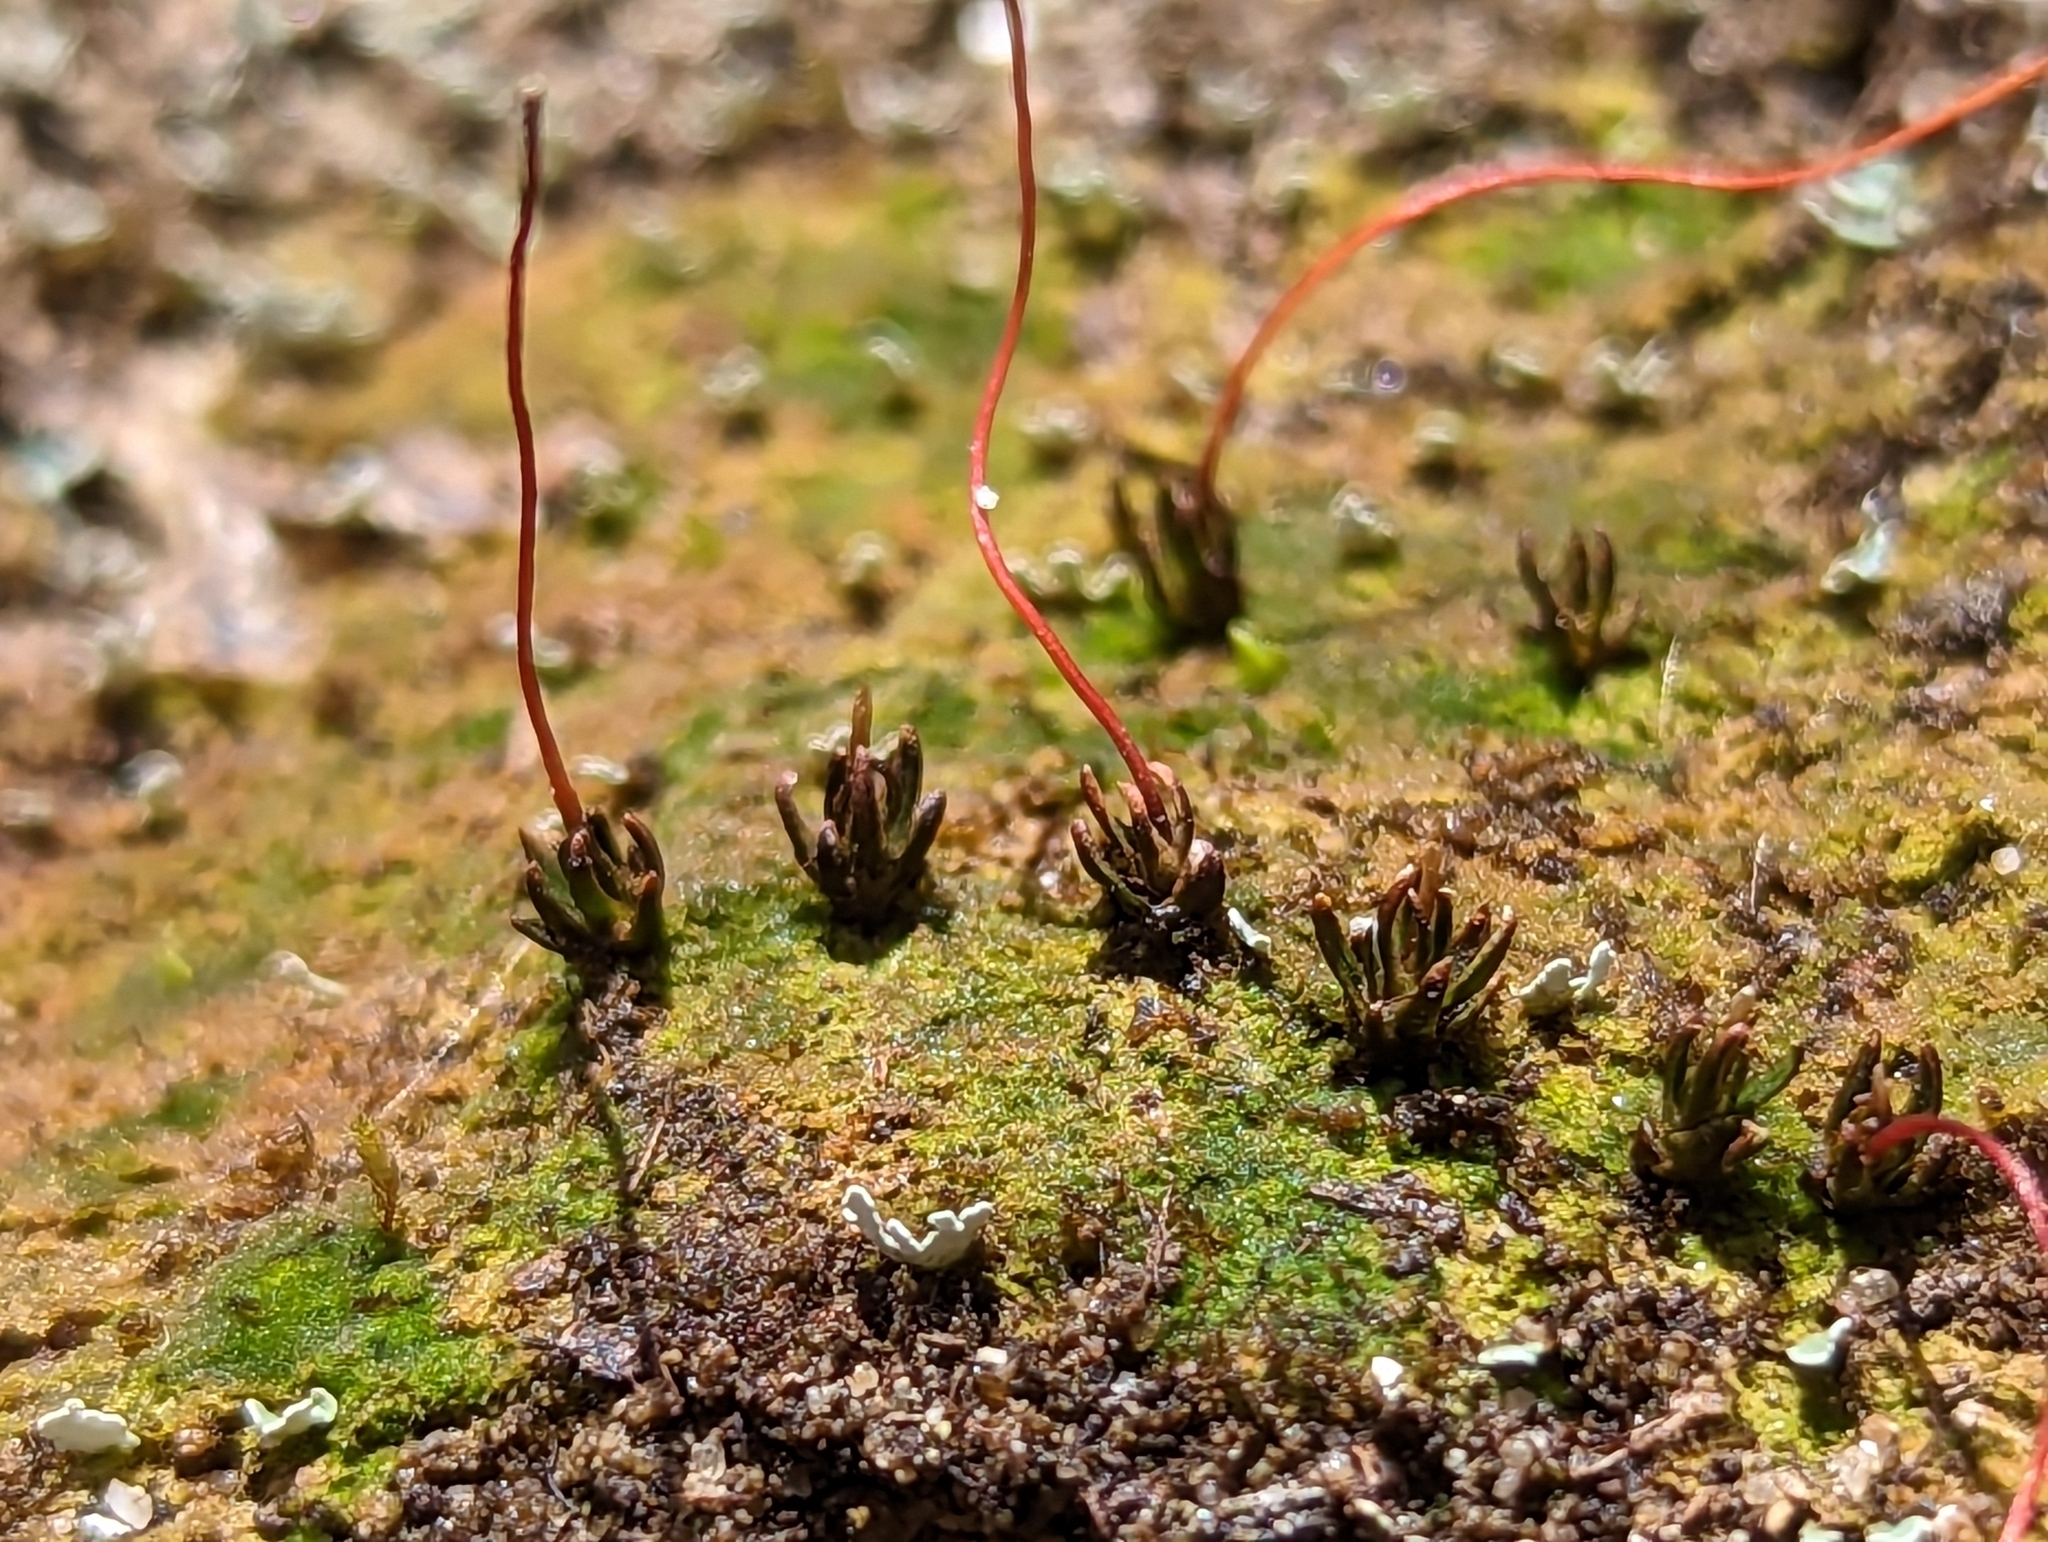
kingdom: Plantae
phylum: Bryophyta
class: Polytrichopsida
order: Polytrichales
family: Polytrichaceae
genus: Pogonatum
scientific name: Pogonatum brachyphyllum
